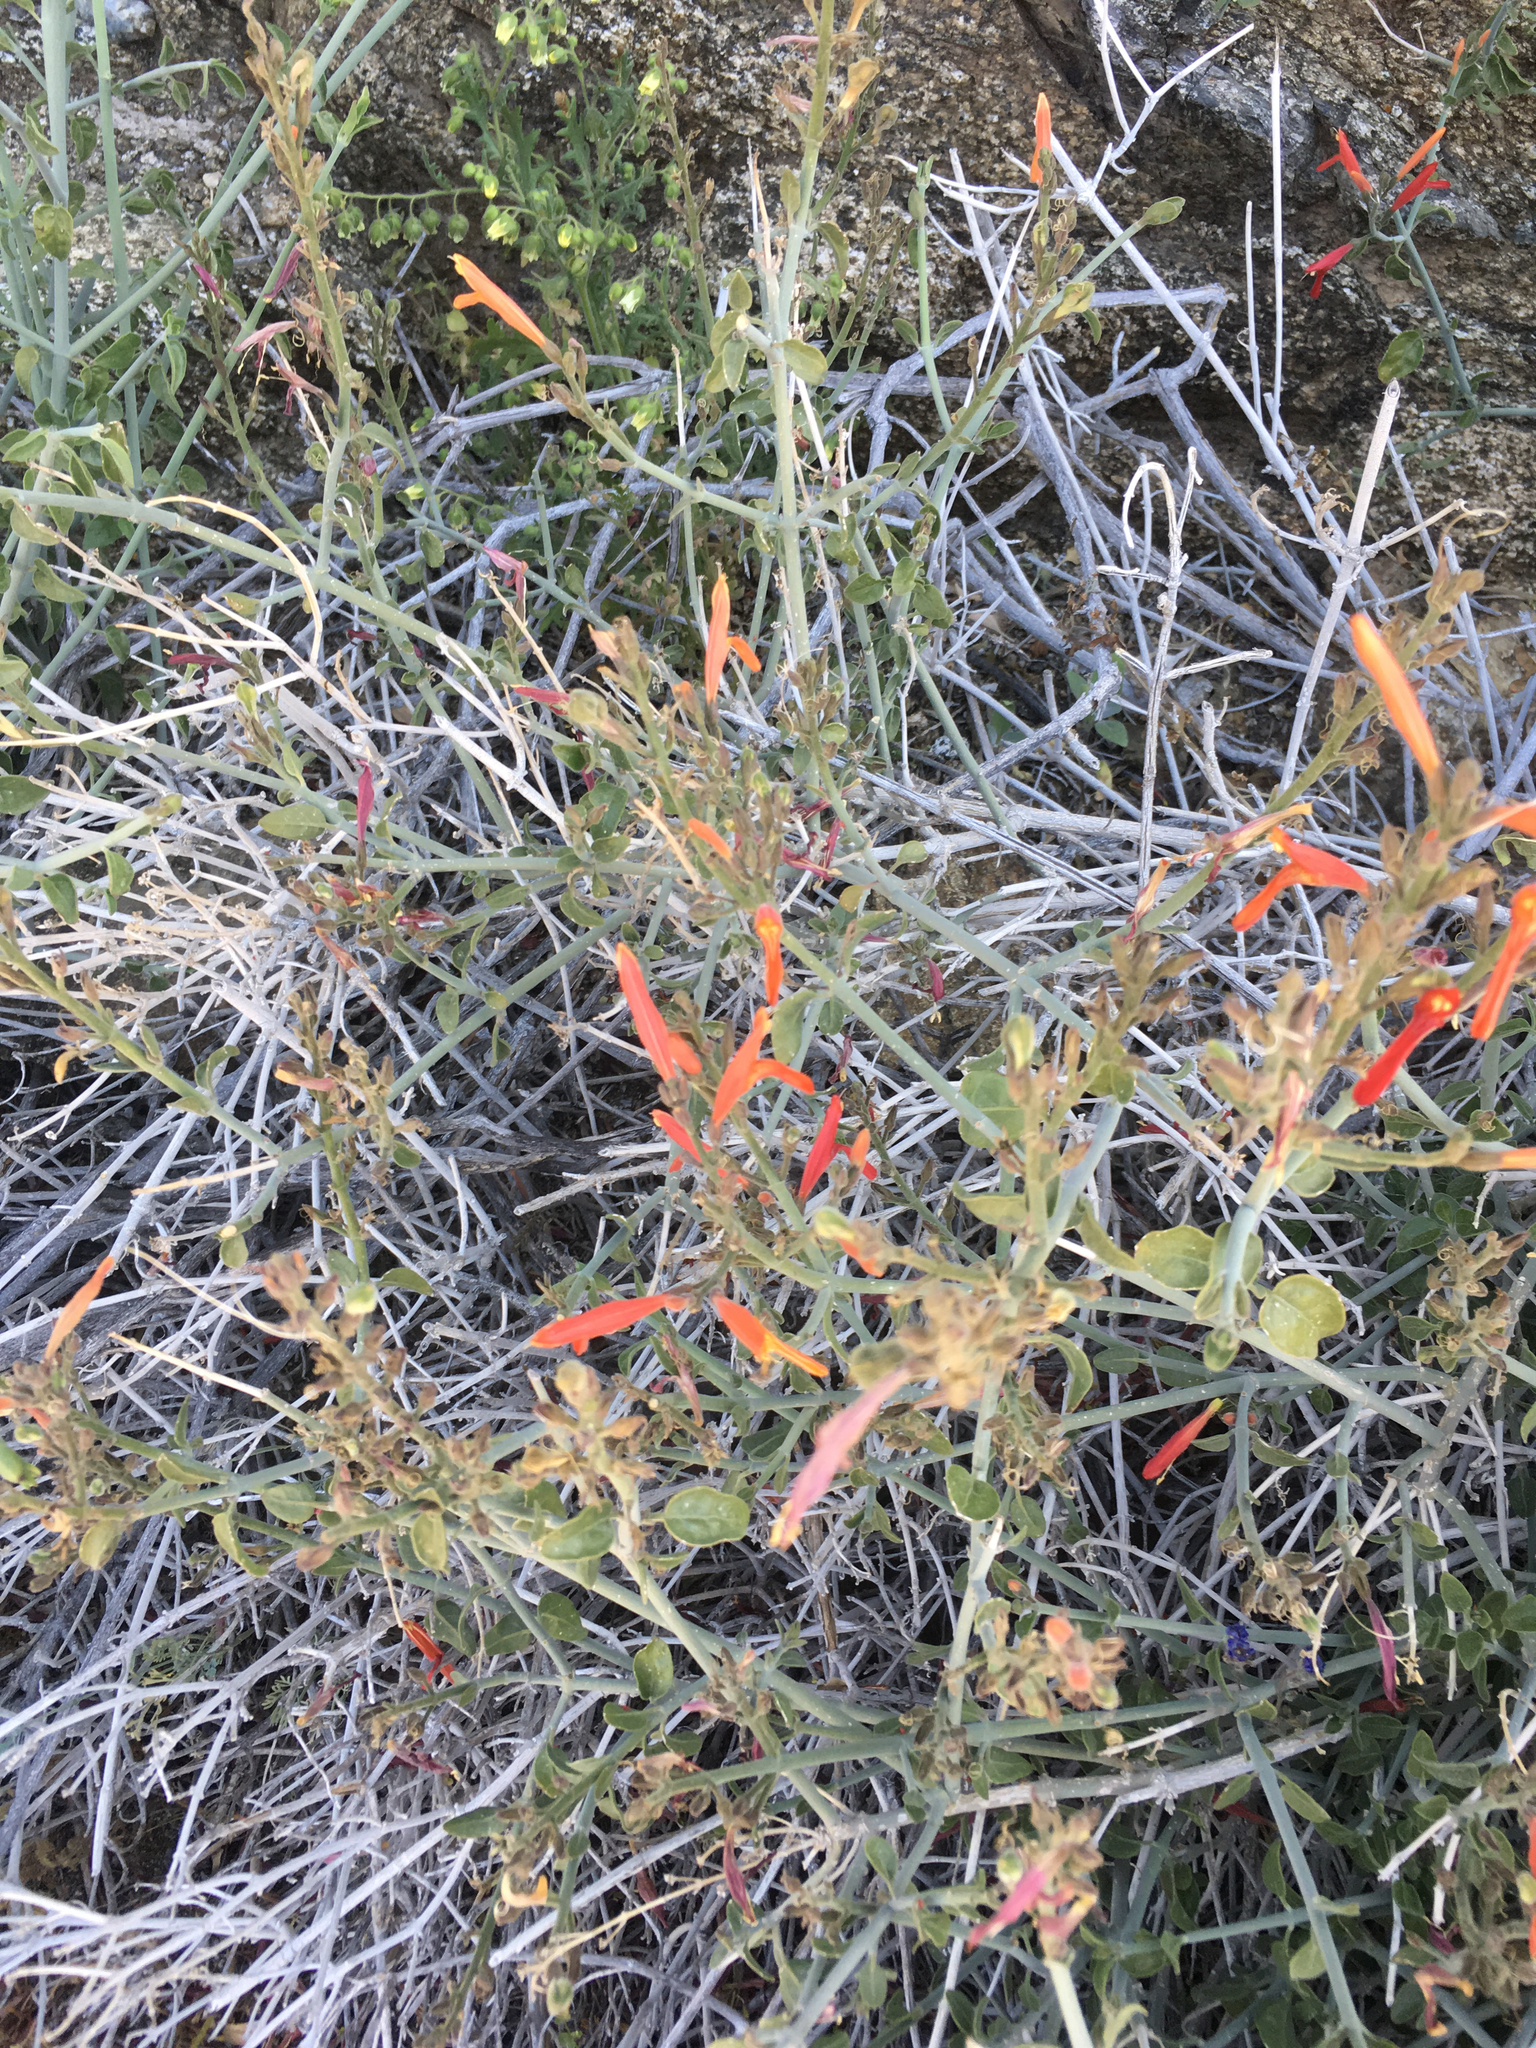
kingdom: Plantae
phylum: Tracheophyta
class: Magnoliopsida
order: Lamiales
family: Acanthaceae
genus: Justicia
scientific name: Justicia californica
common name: Chuparosa-honeysuckle
